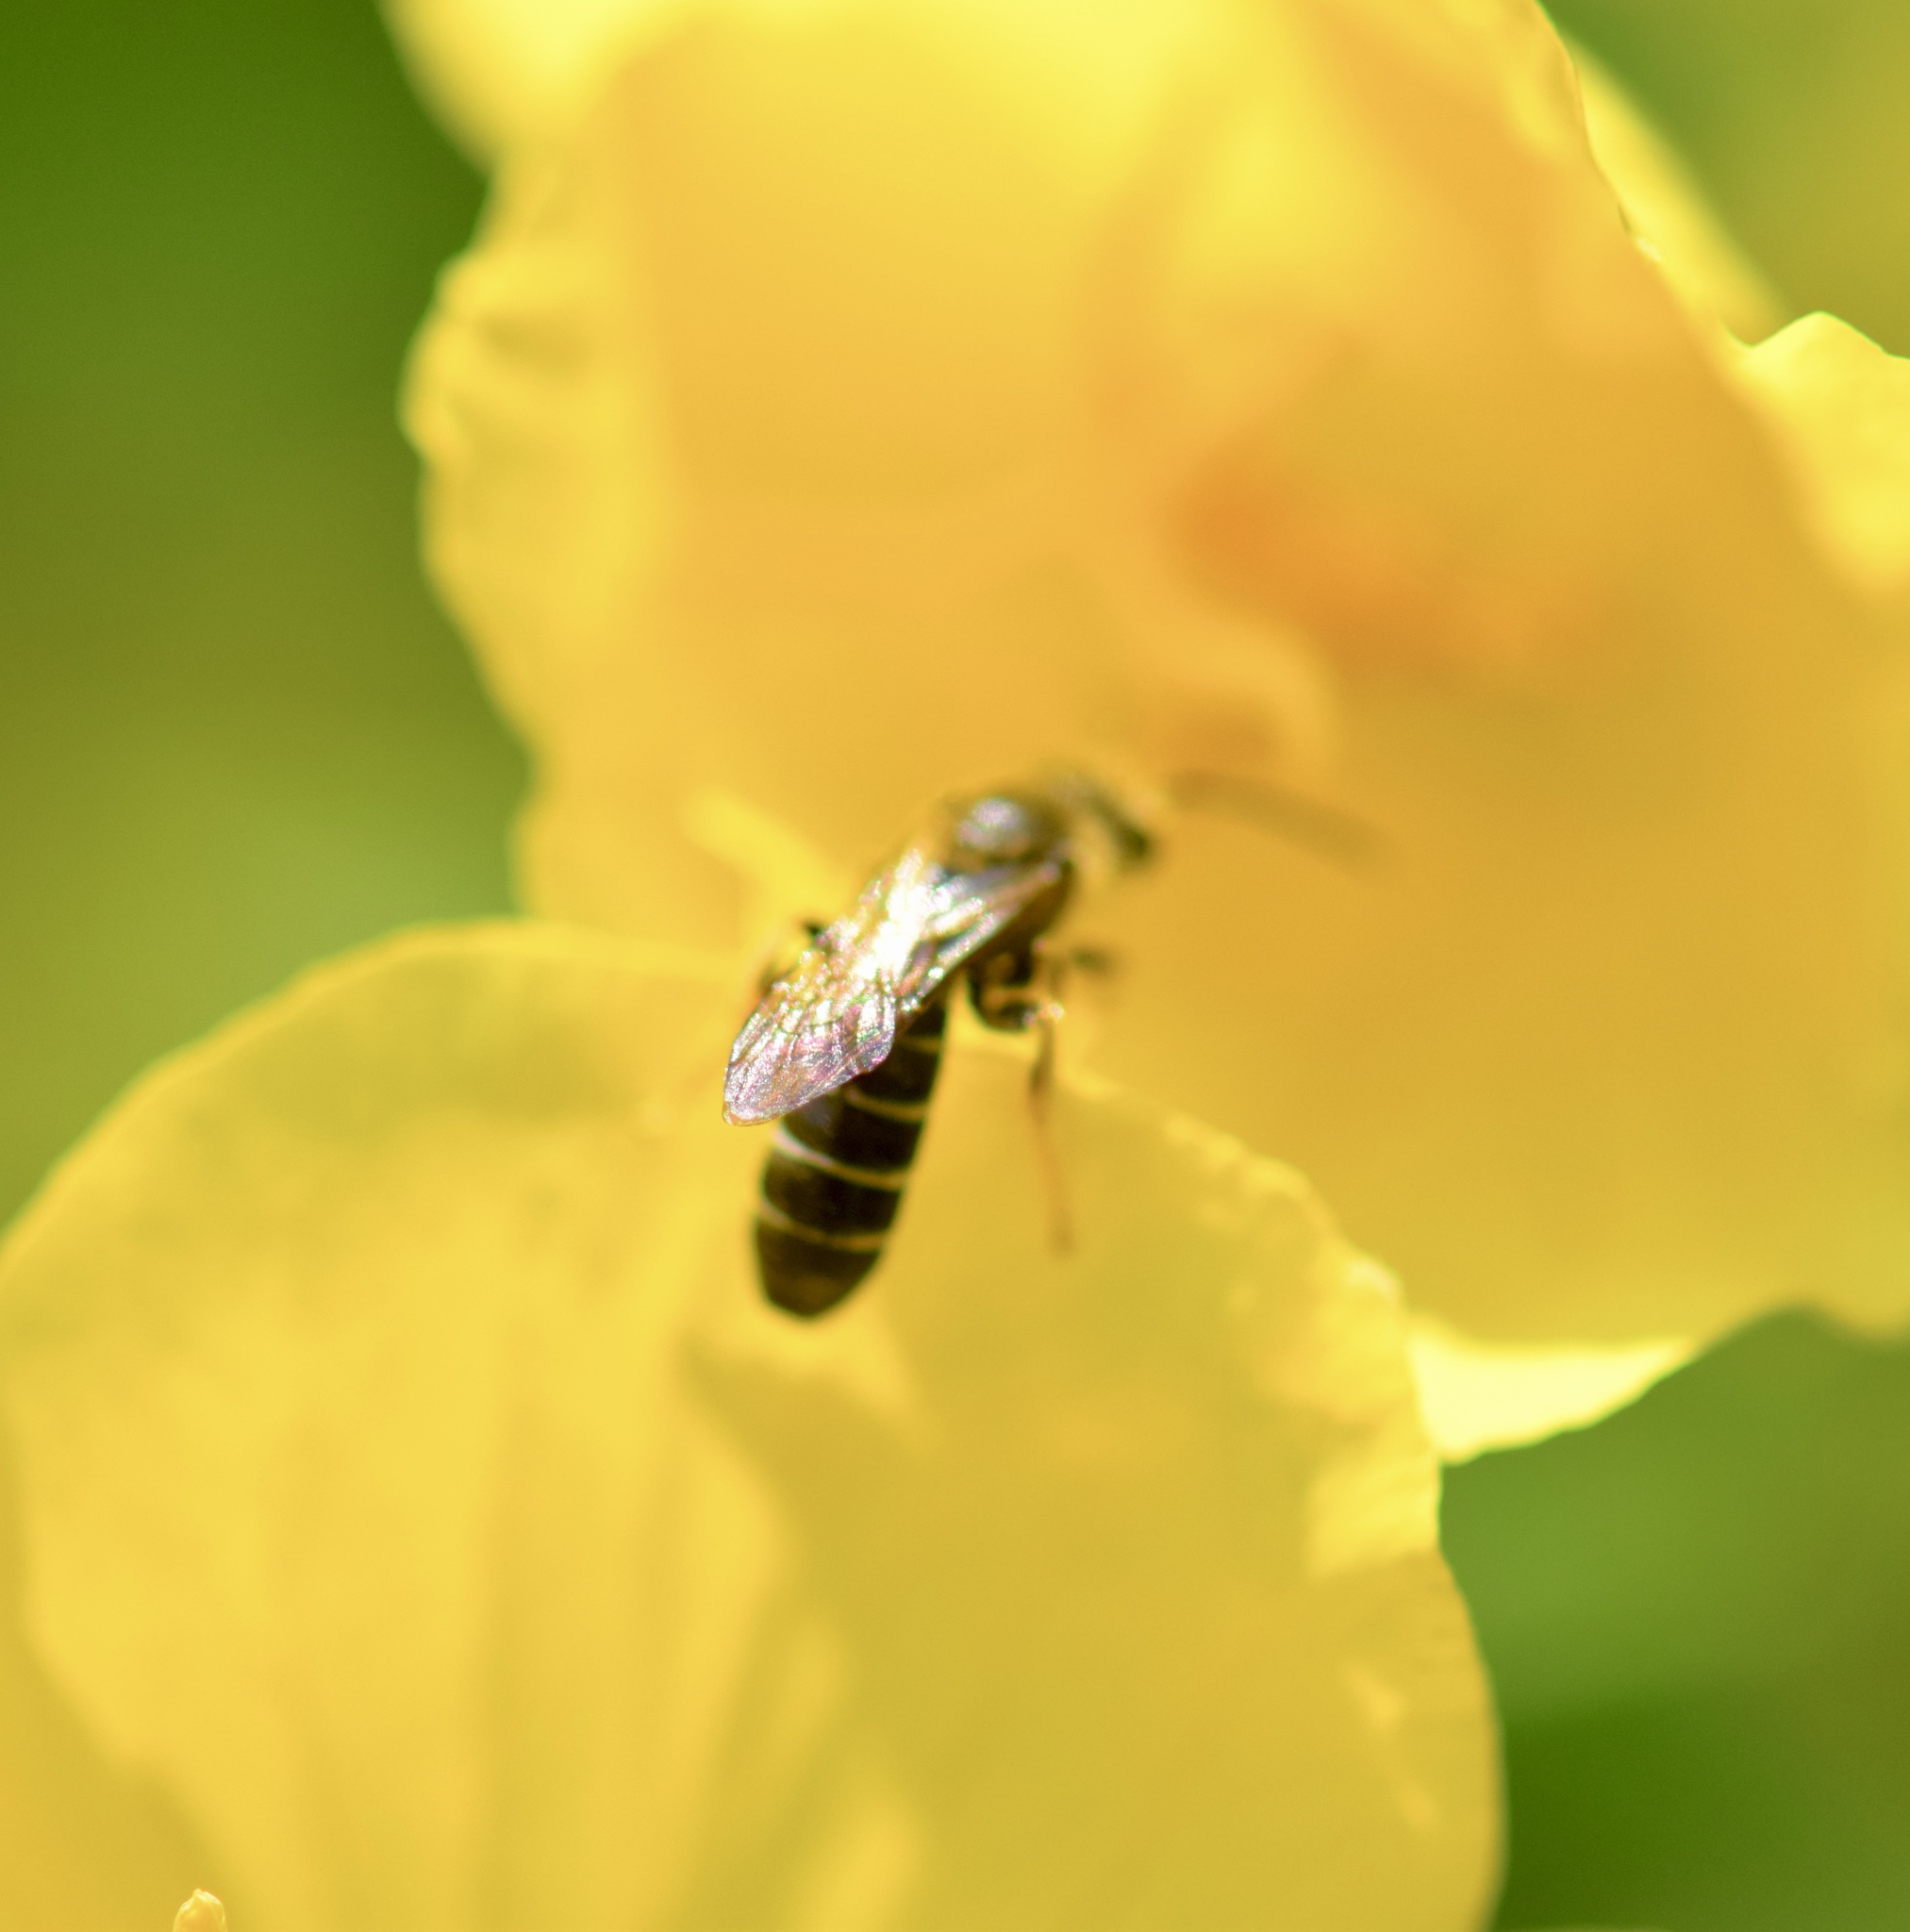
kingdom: Animalia
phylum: Arthropoda
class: Insecta
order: Hymenoptera
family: Halictidae
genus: Halictus
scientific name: Halictus rubicundus
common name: Orange-legged furrow bee
